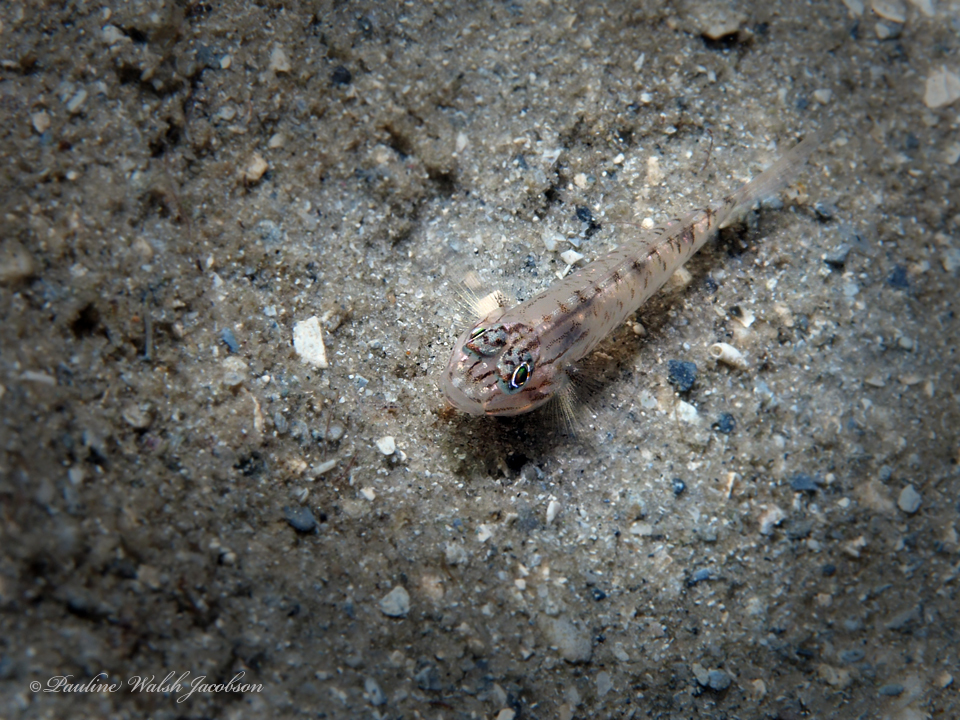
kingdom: Animalia
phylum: Chordata
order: Perciformes
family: Gobiidae
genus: Coryphopterus
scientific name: Coryphopterus glaucofraenum
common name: Bridled goby
